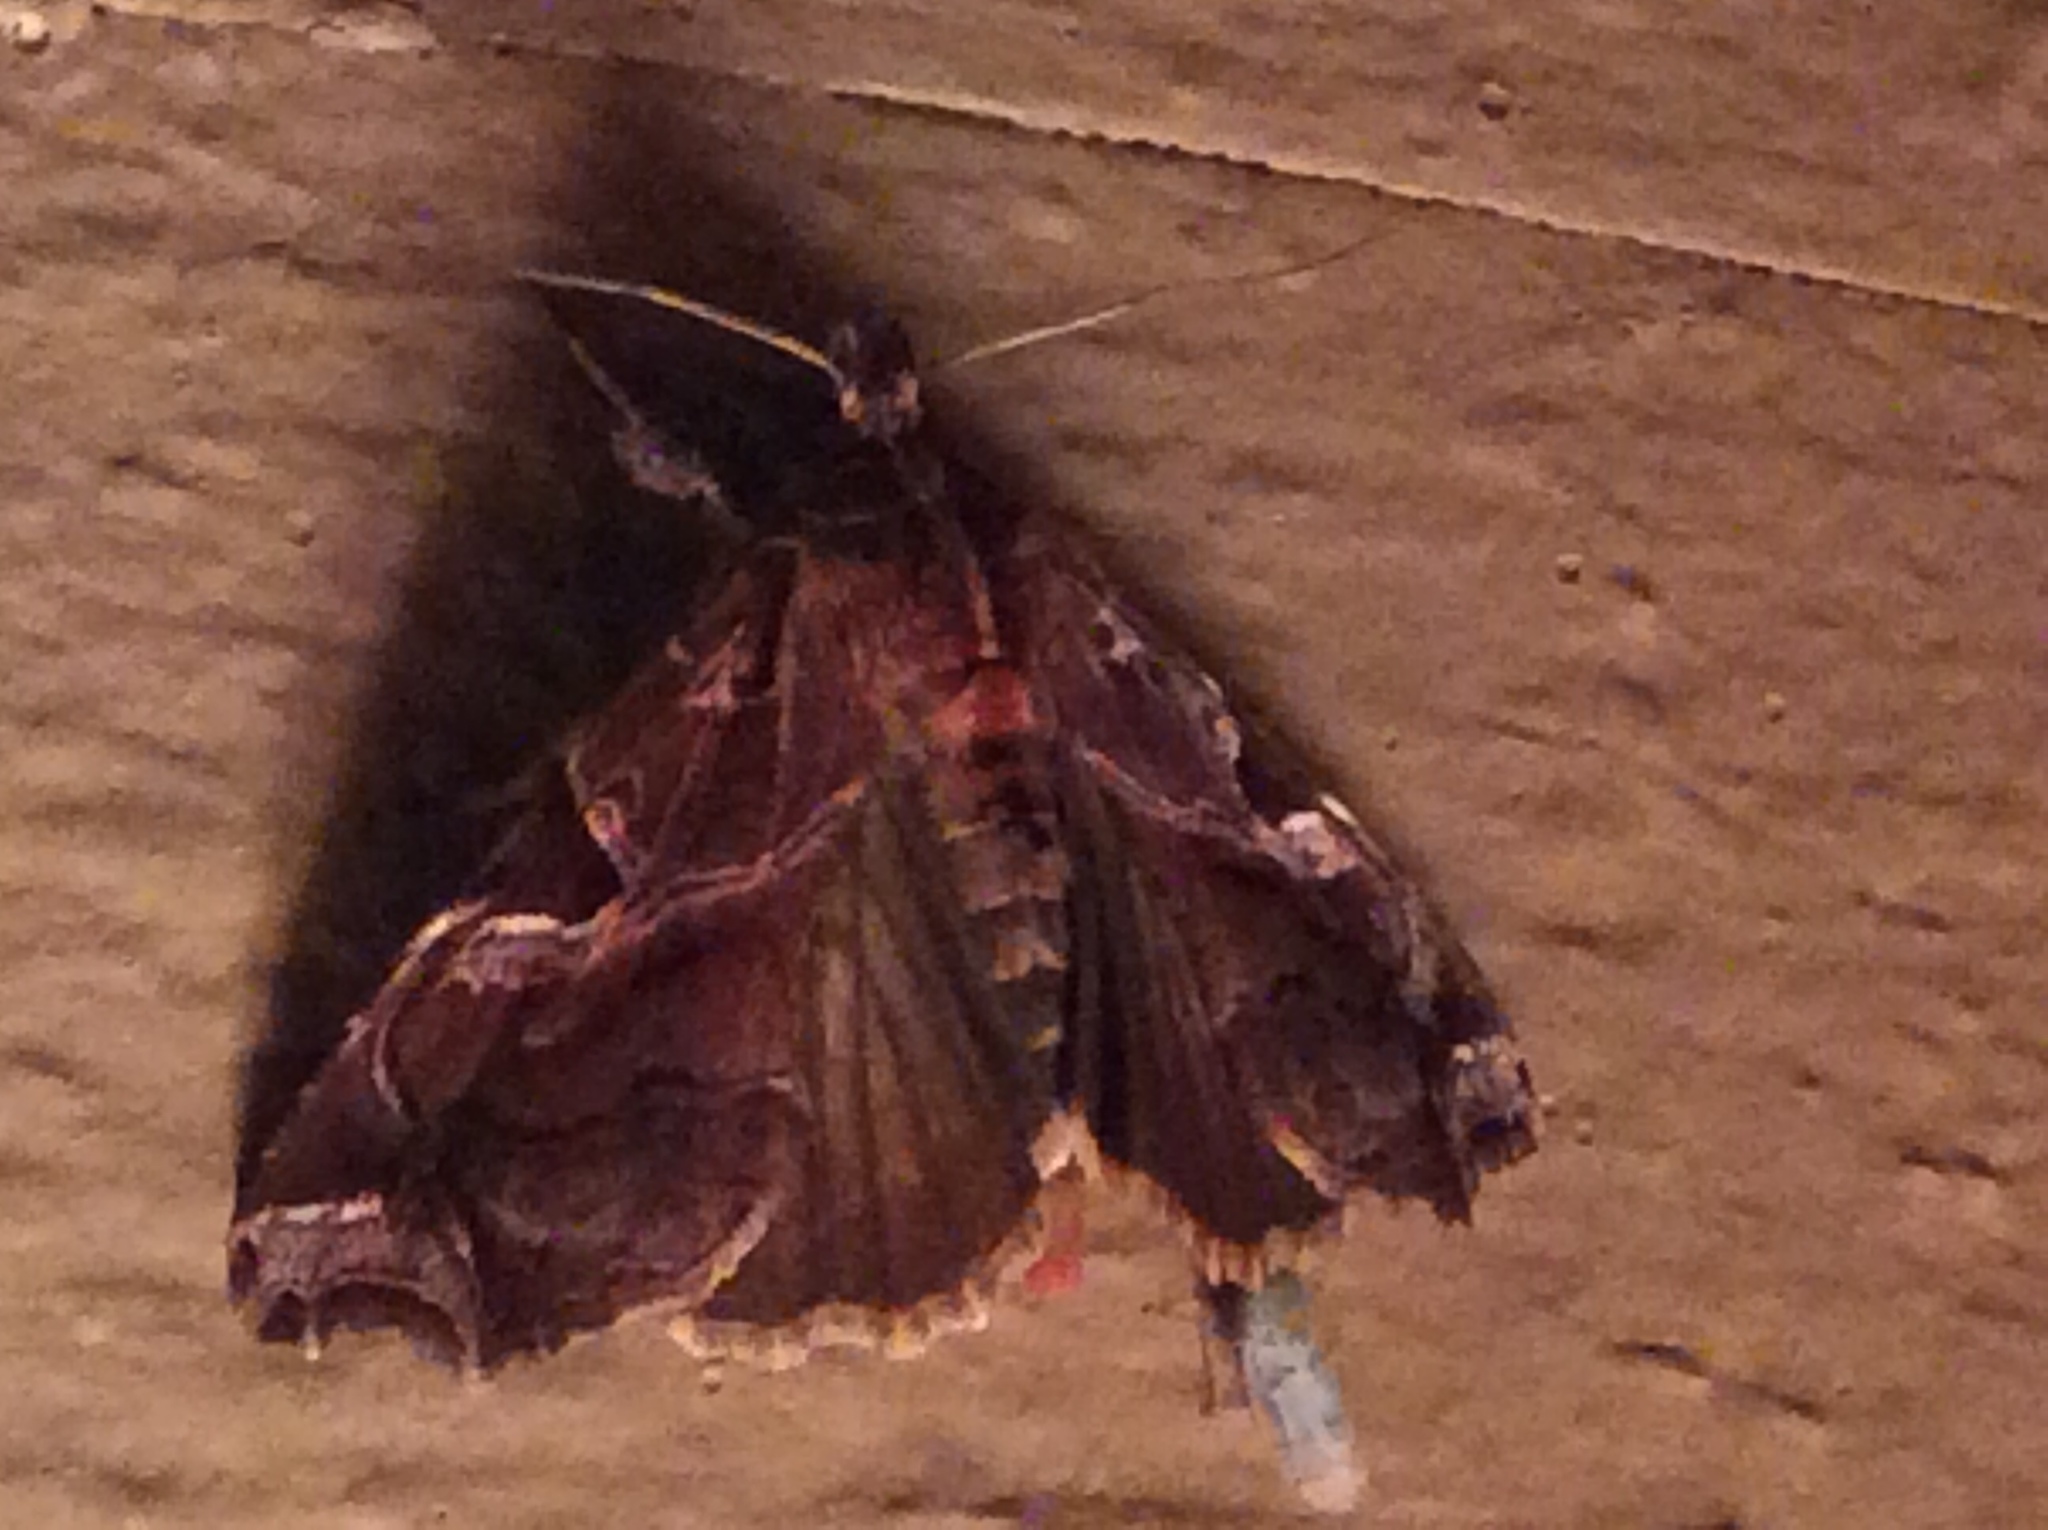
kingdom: Animalia
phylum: Arthropoda
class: Insecta
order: Lepidoptera
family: Noctuidae
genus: Callopistria
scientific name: Callopistria floridensis
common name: Florida fern moth
